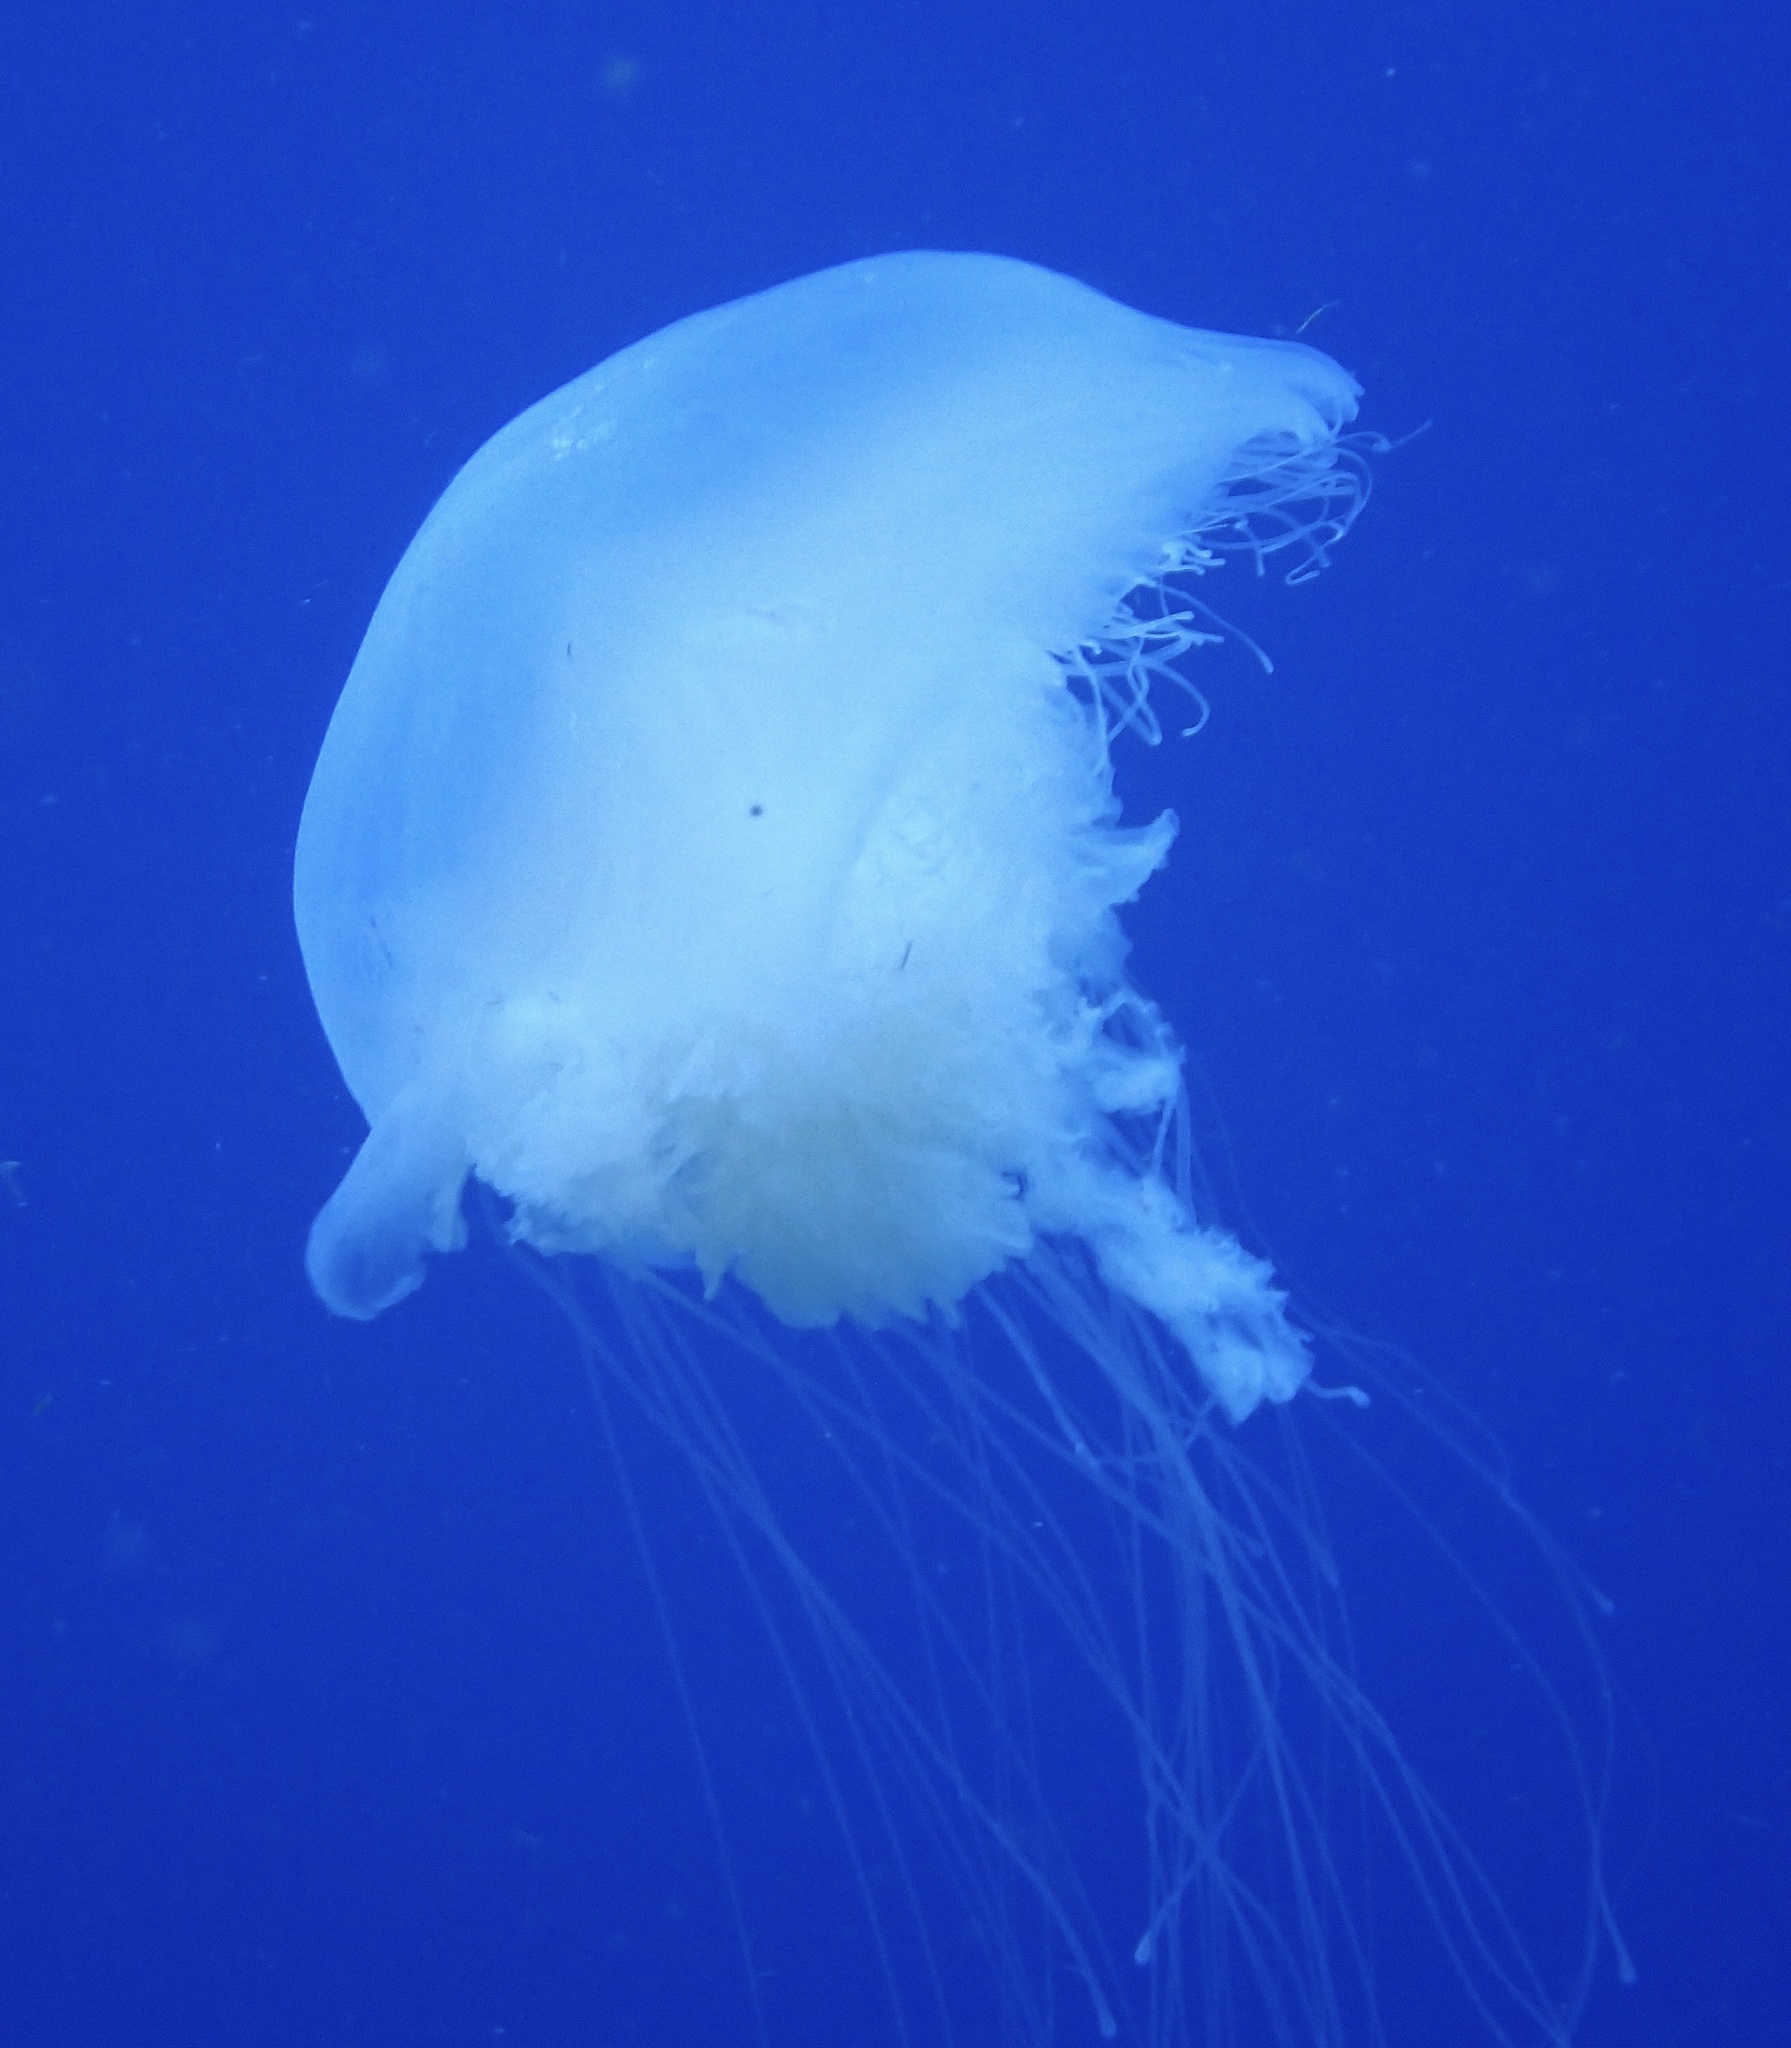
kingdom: Animalia
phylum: Cnidaria
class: Scyphozoa
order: Semaeostomeae
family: Drymonematidae
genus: Drymonema
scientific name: Drymonema larsoni
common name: Larson's jellyfish
